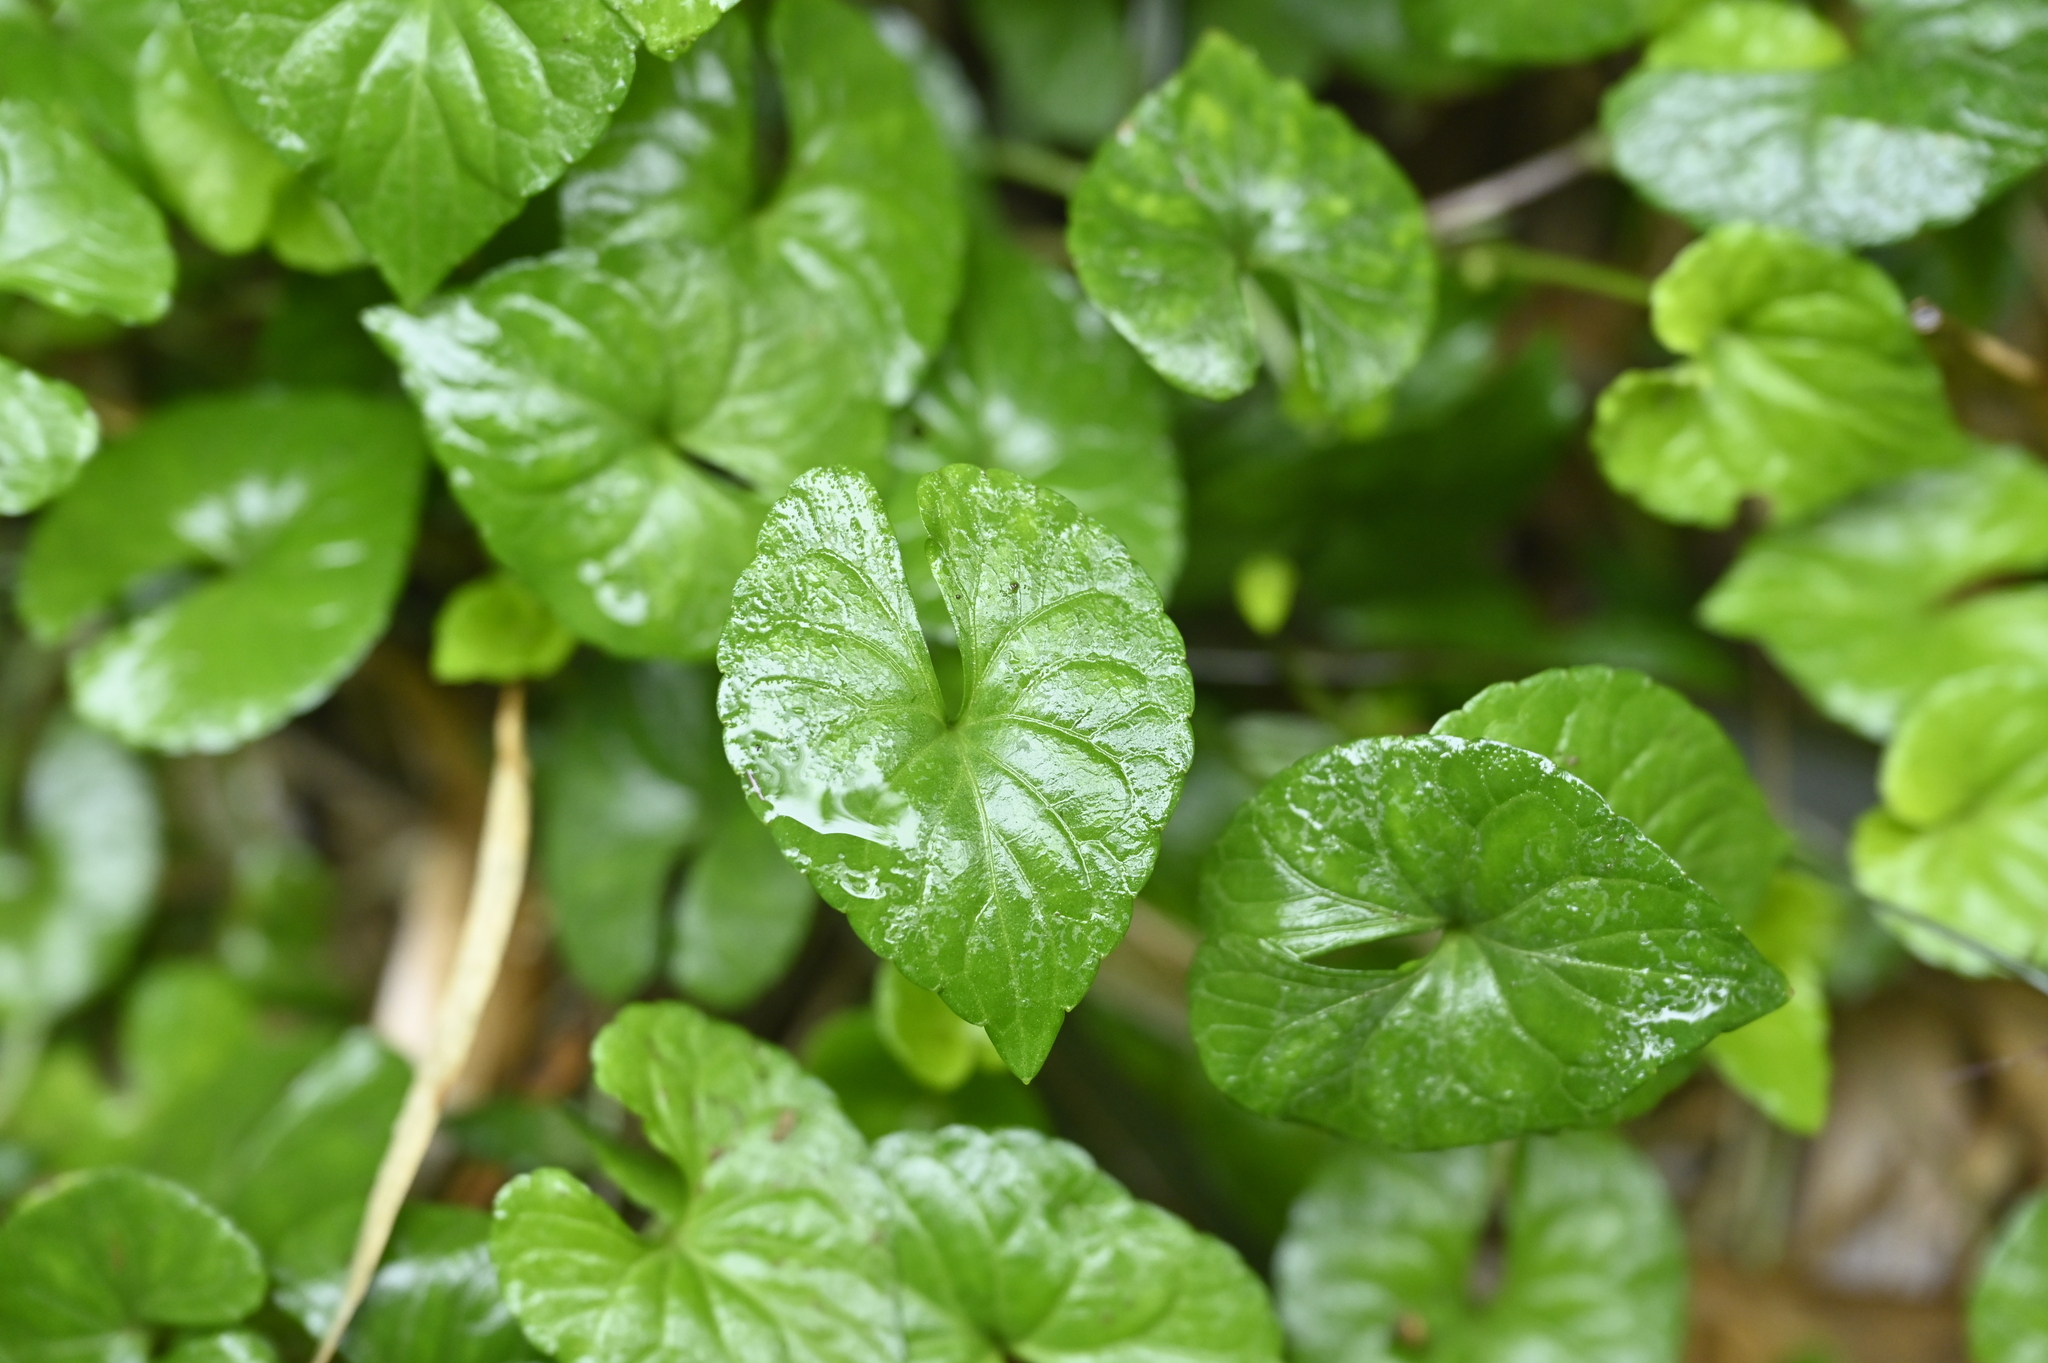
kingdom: Plantae
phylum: Tracheophyta
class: Magnoliopsida
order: Malpighiales
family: Violaceae
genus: Viola
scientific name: Viola
